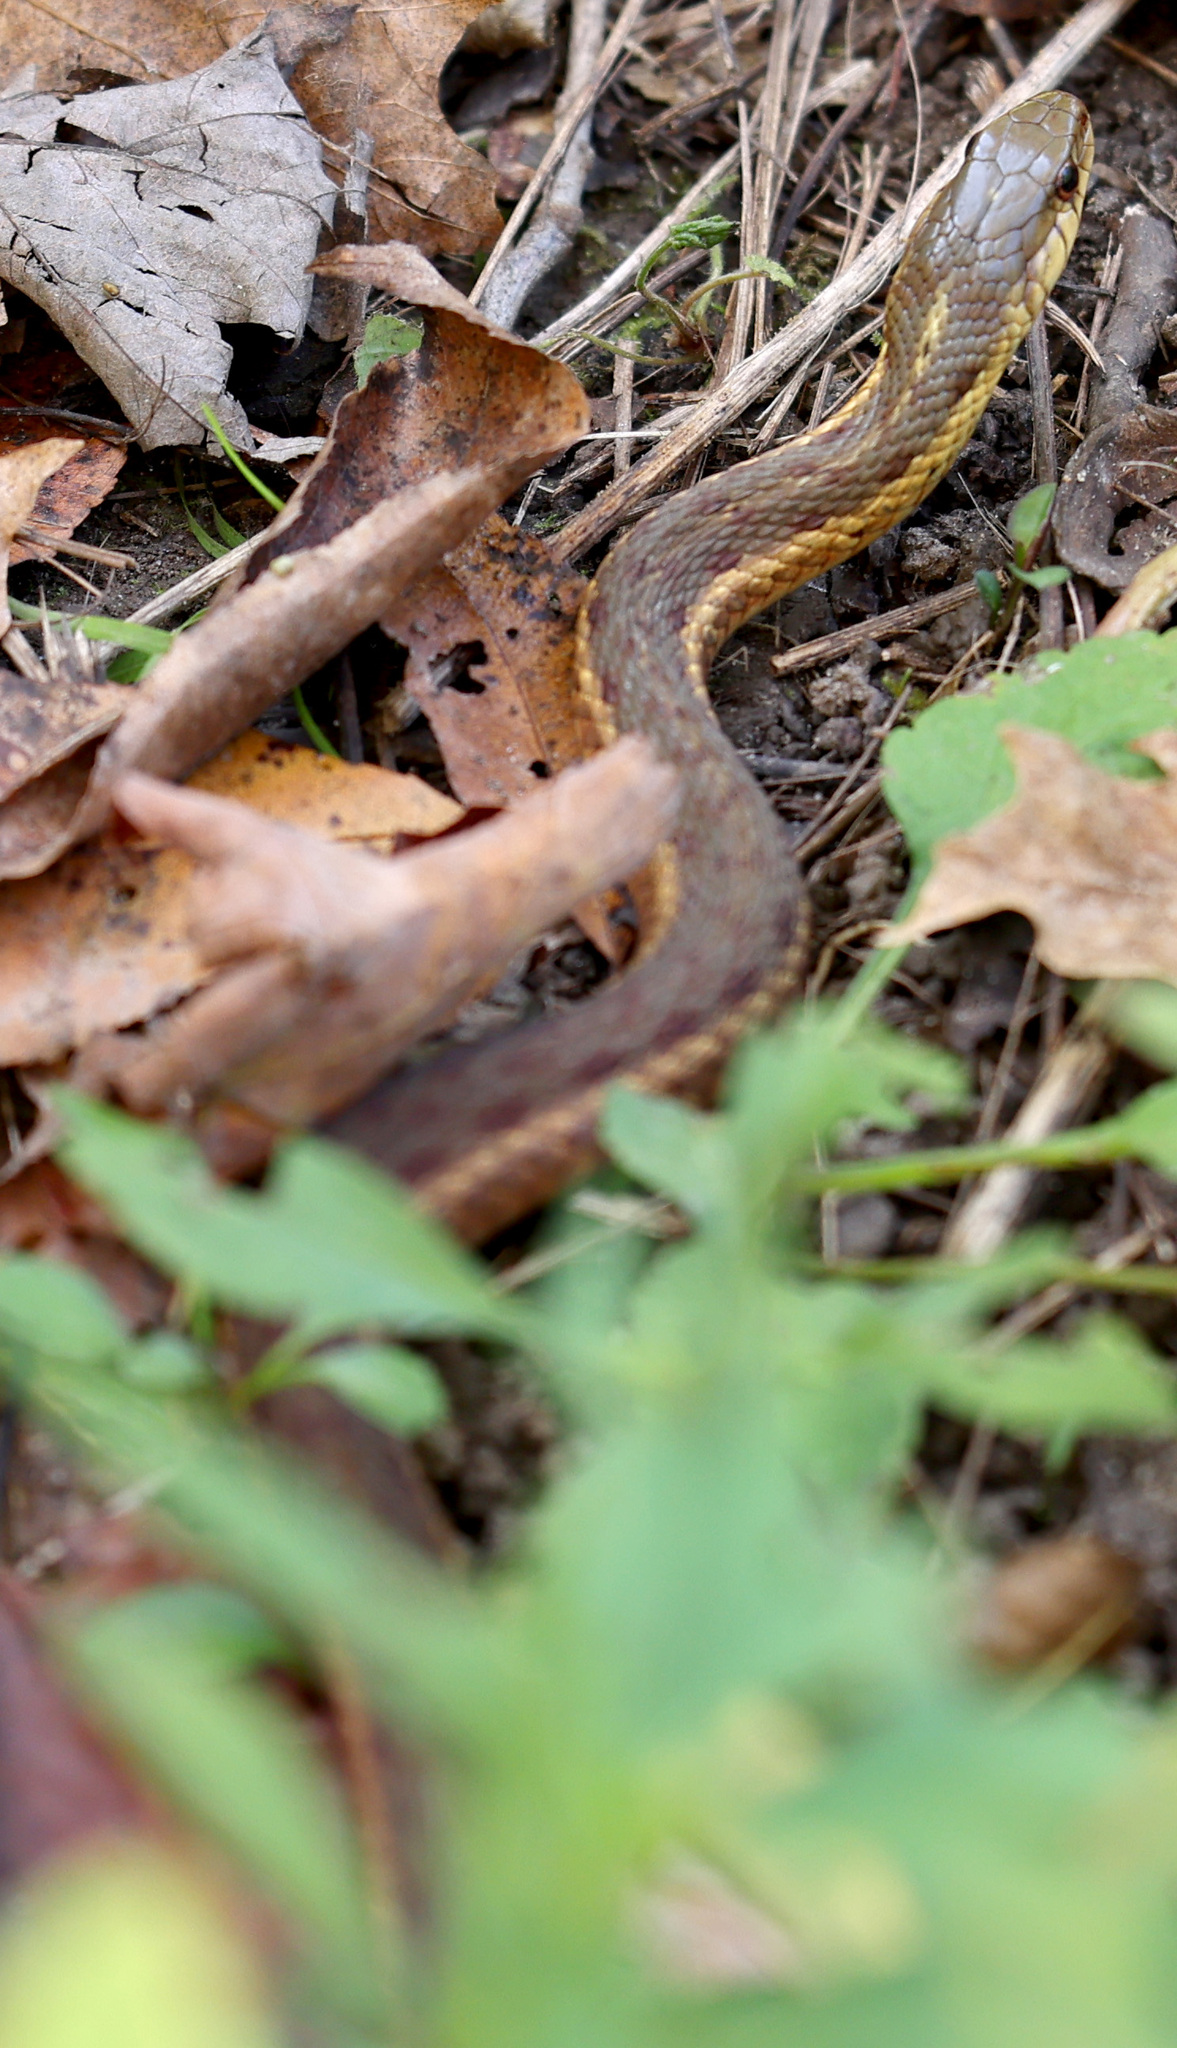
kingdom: Animalia
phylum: Chordata
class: Squamata
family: Colubridae
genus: Thamnophis
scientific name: Thamnophis sirtalis
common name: Common garter snake
